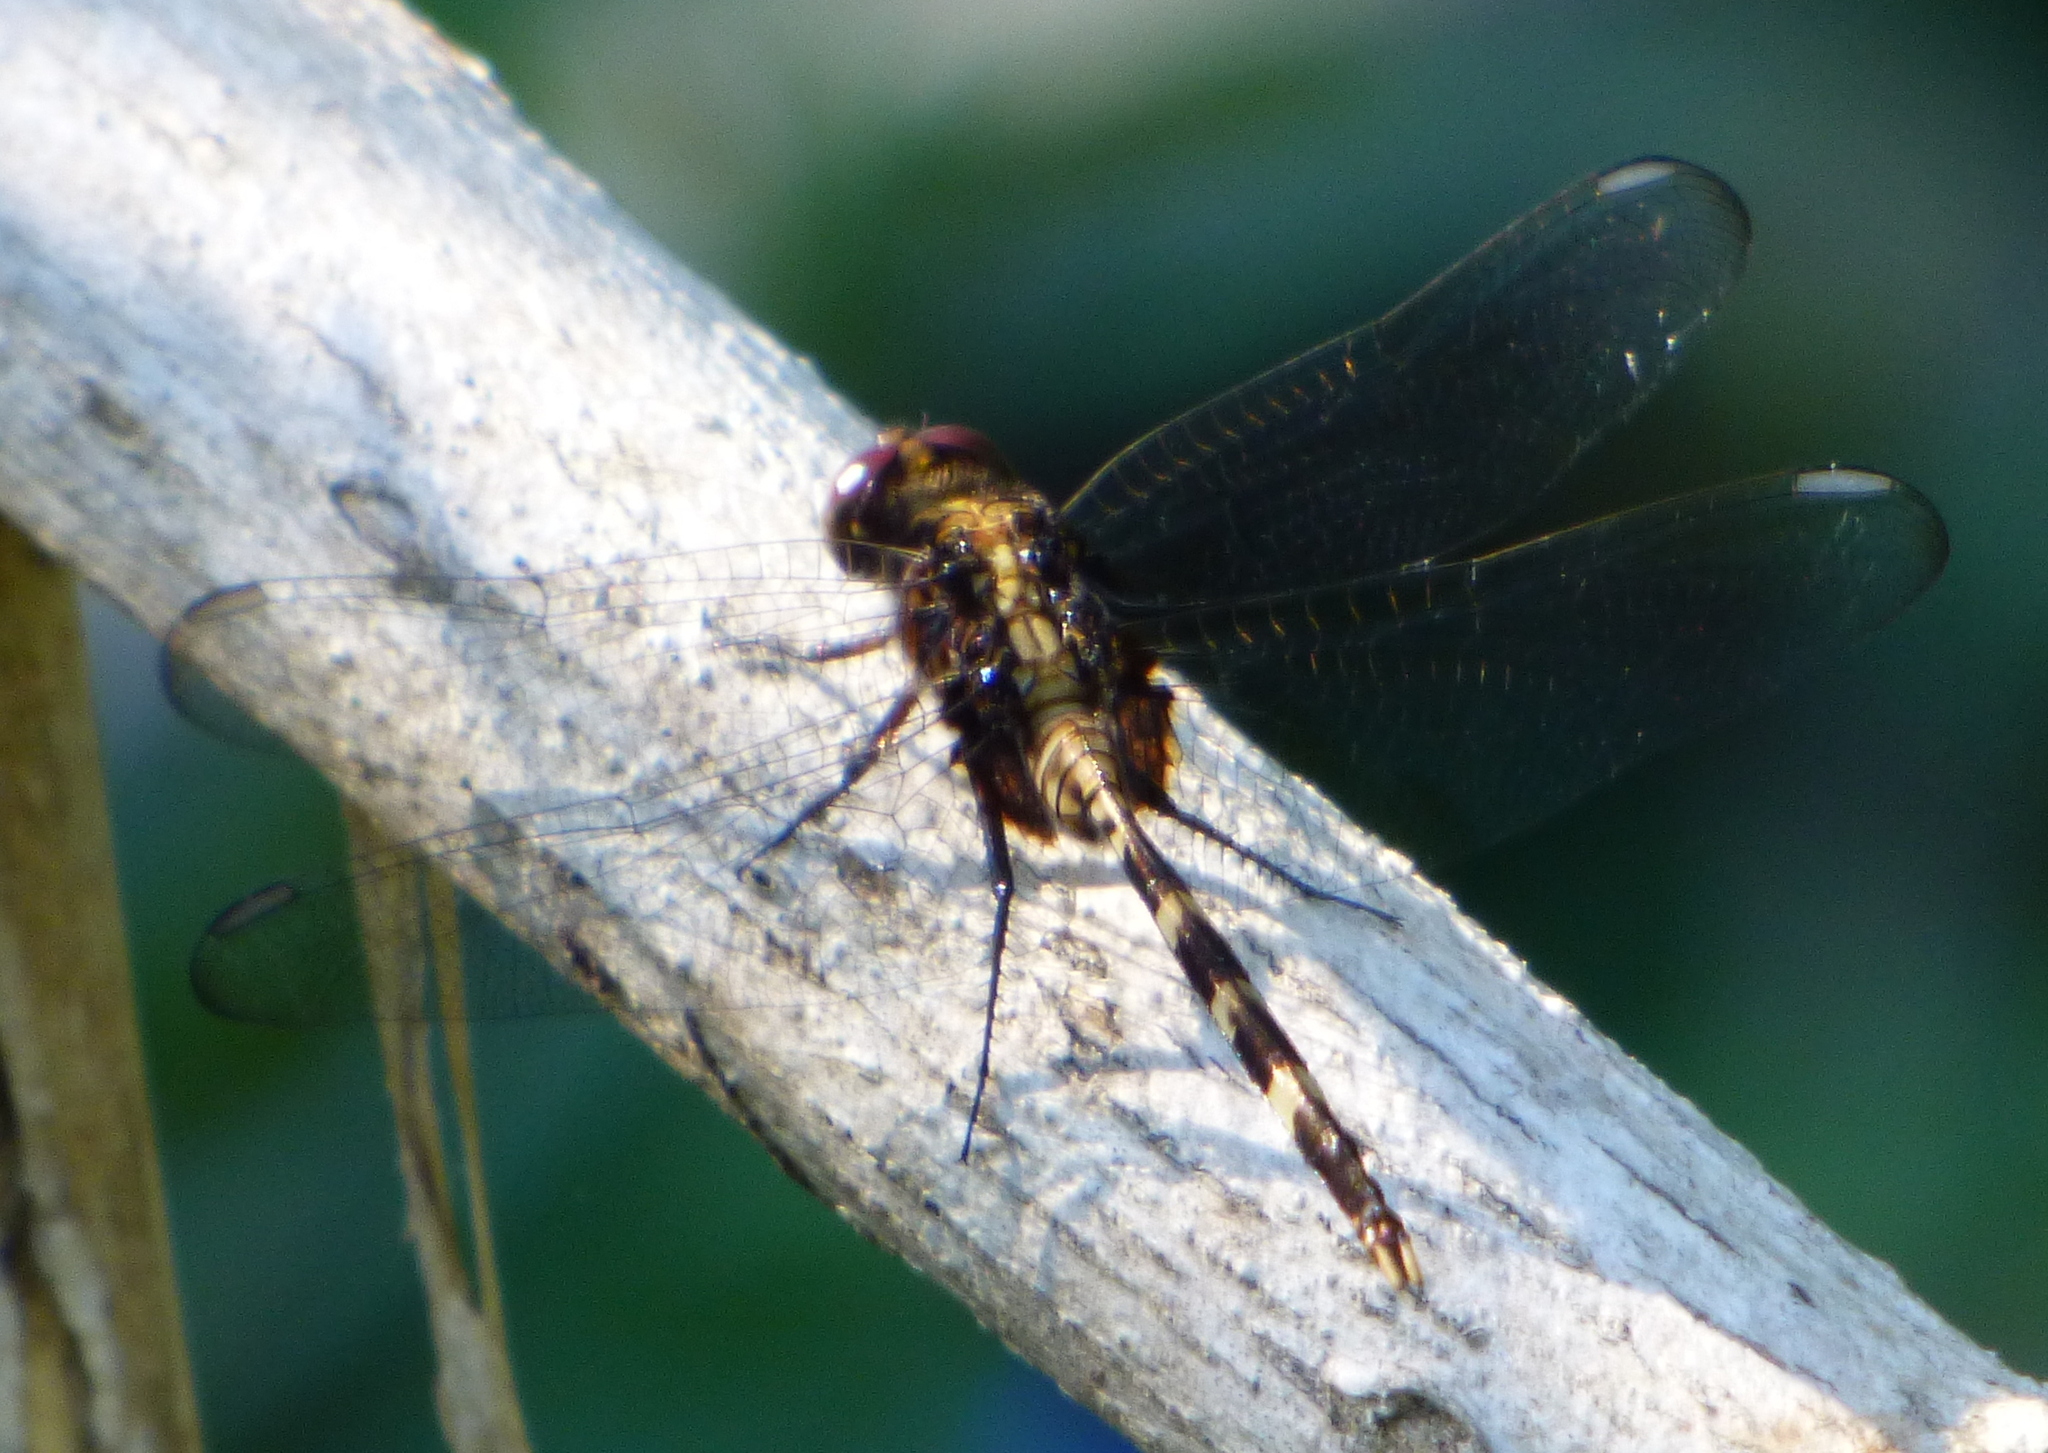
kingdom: Animalia
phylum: Arthropoda
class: Insecta
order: Odonata
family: Libellulidae
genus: Erythemis
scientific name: Erythemis plebeja
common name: Pin-tailed pondhawk
